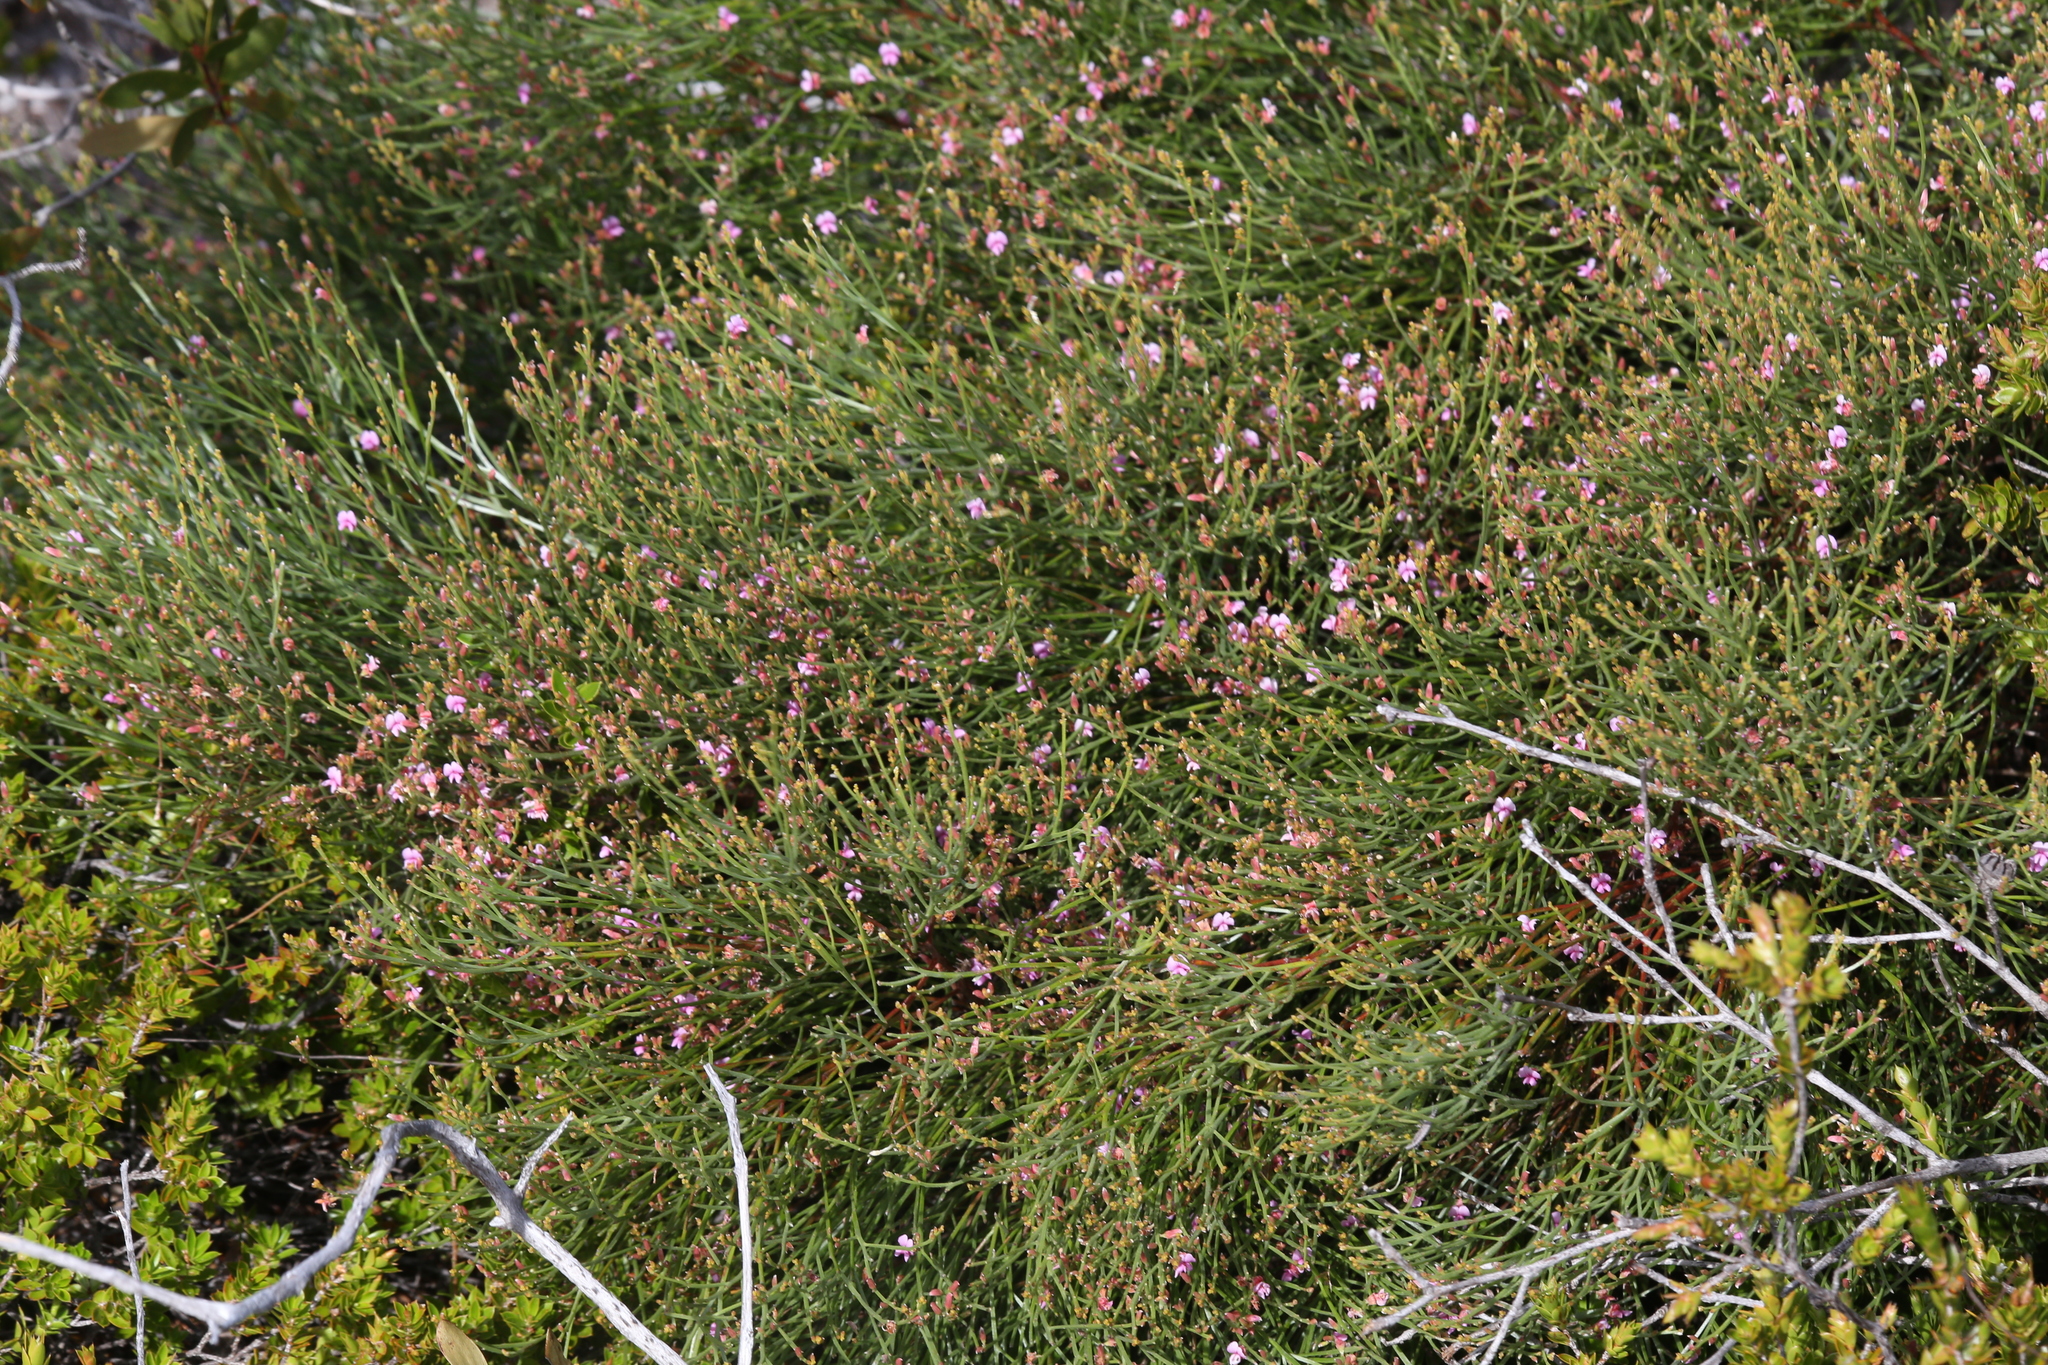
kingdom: Plantae
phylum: Tracheophyta
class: Magnoliopsida
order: Fabales
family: Fabaceae
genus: Jacksonia
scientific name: Jacksonia thesioides
